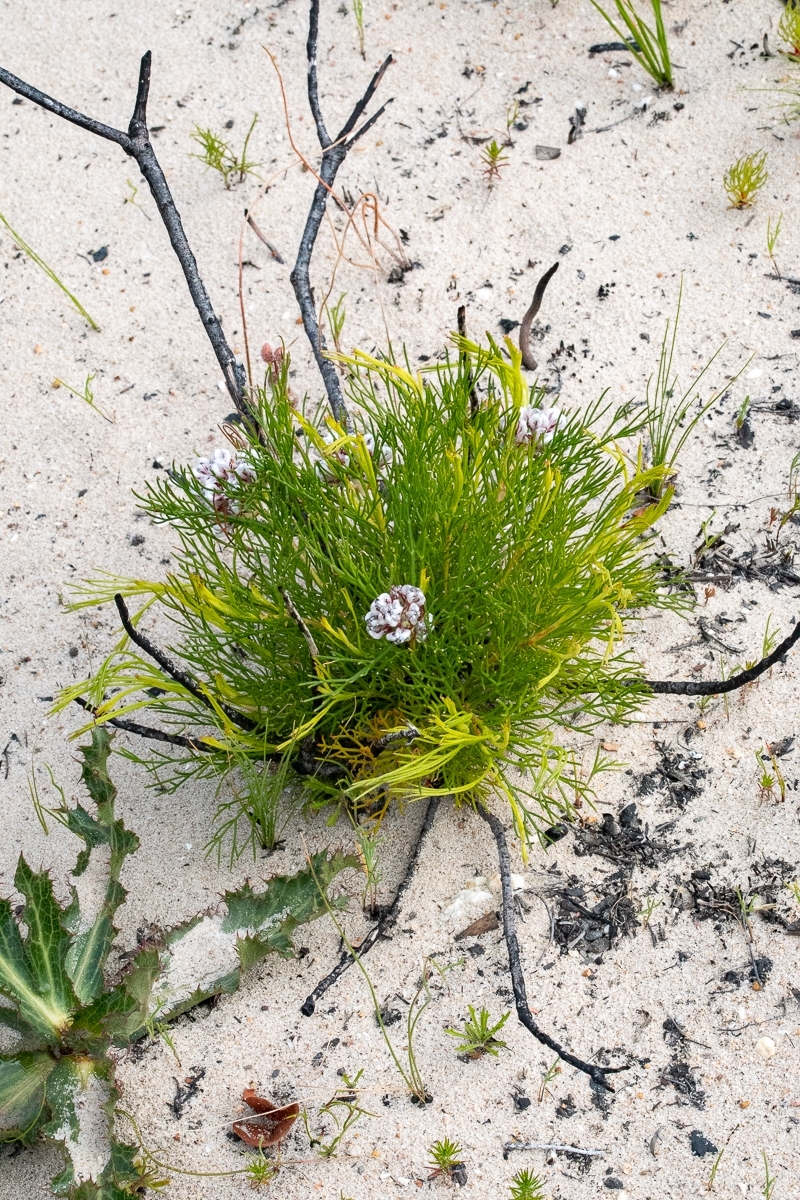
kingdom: Plantae
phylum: Tracheophyta
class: Magnoliopsida
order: Proteales
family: Proteaceae
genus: Serruria
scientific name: Serruria rubricaulis
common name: Red-stem spiderhead
